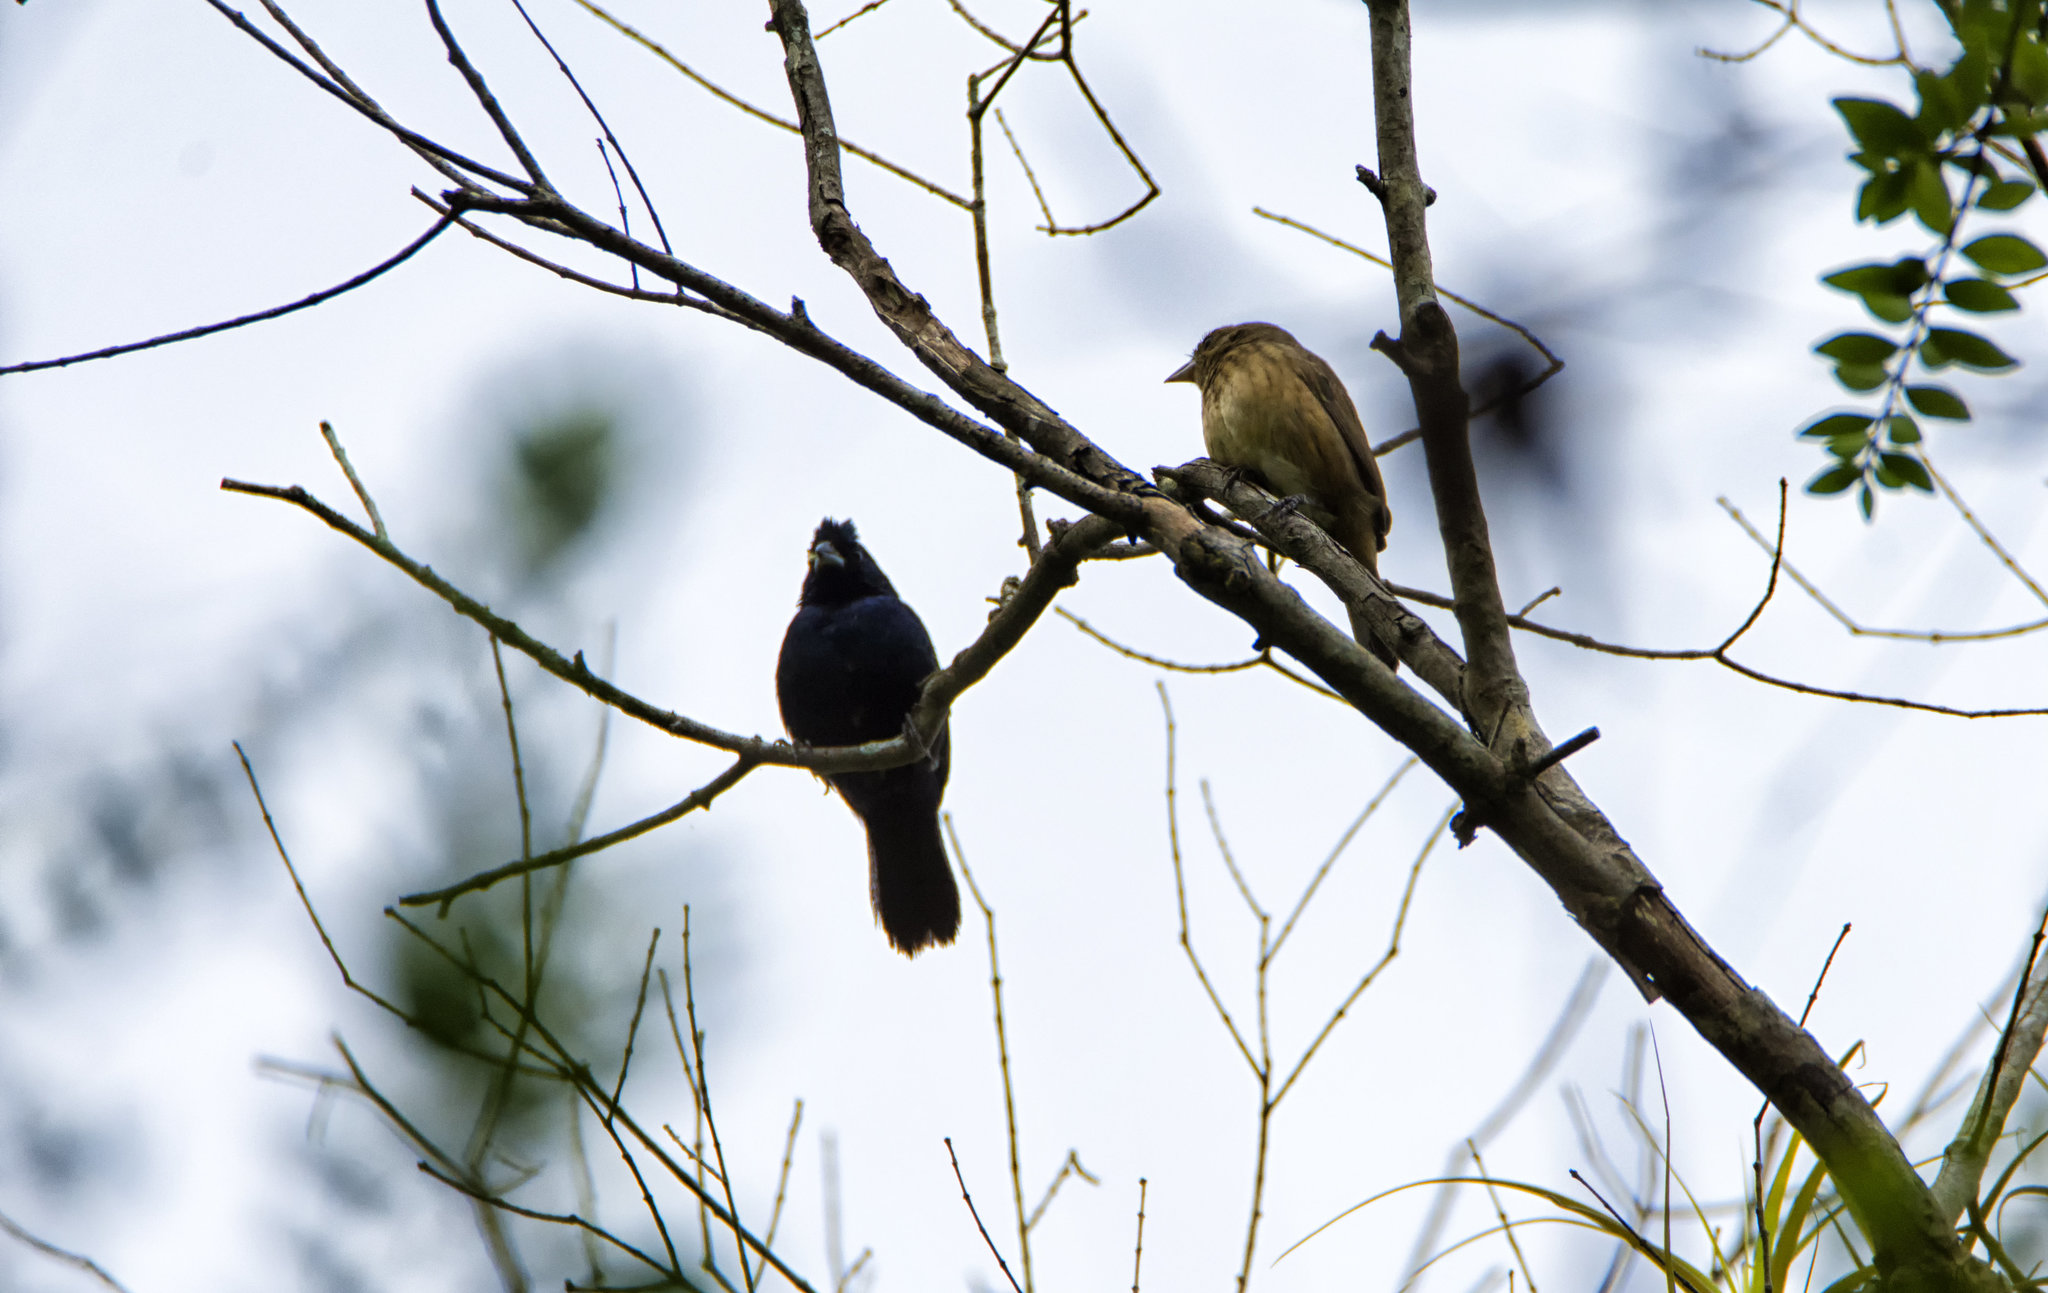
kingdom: Animalia
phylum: Chordata
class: Aves
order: Passeriformes
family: Thraupidae
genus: Volatinia
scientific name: Volatinia jacarina
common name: Blue-black grassquit
